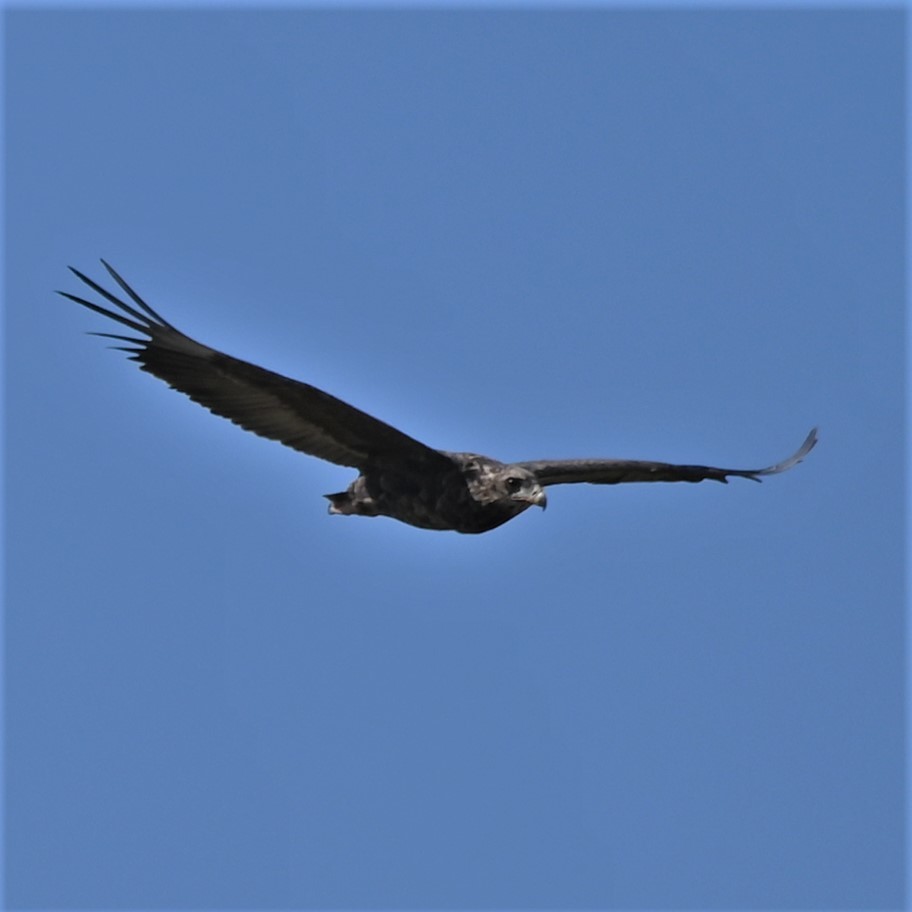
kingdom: Animalia
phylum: Chordata
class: Aves
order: Accipitriformes
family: Accipitridae
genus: Terathopius
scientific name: Terathopius ecaudatus
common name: Bateleur
